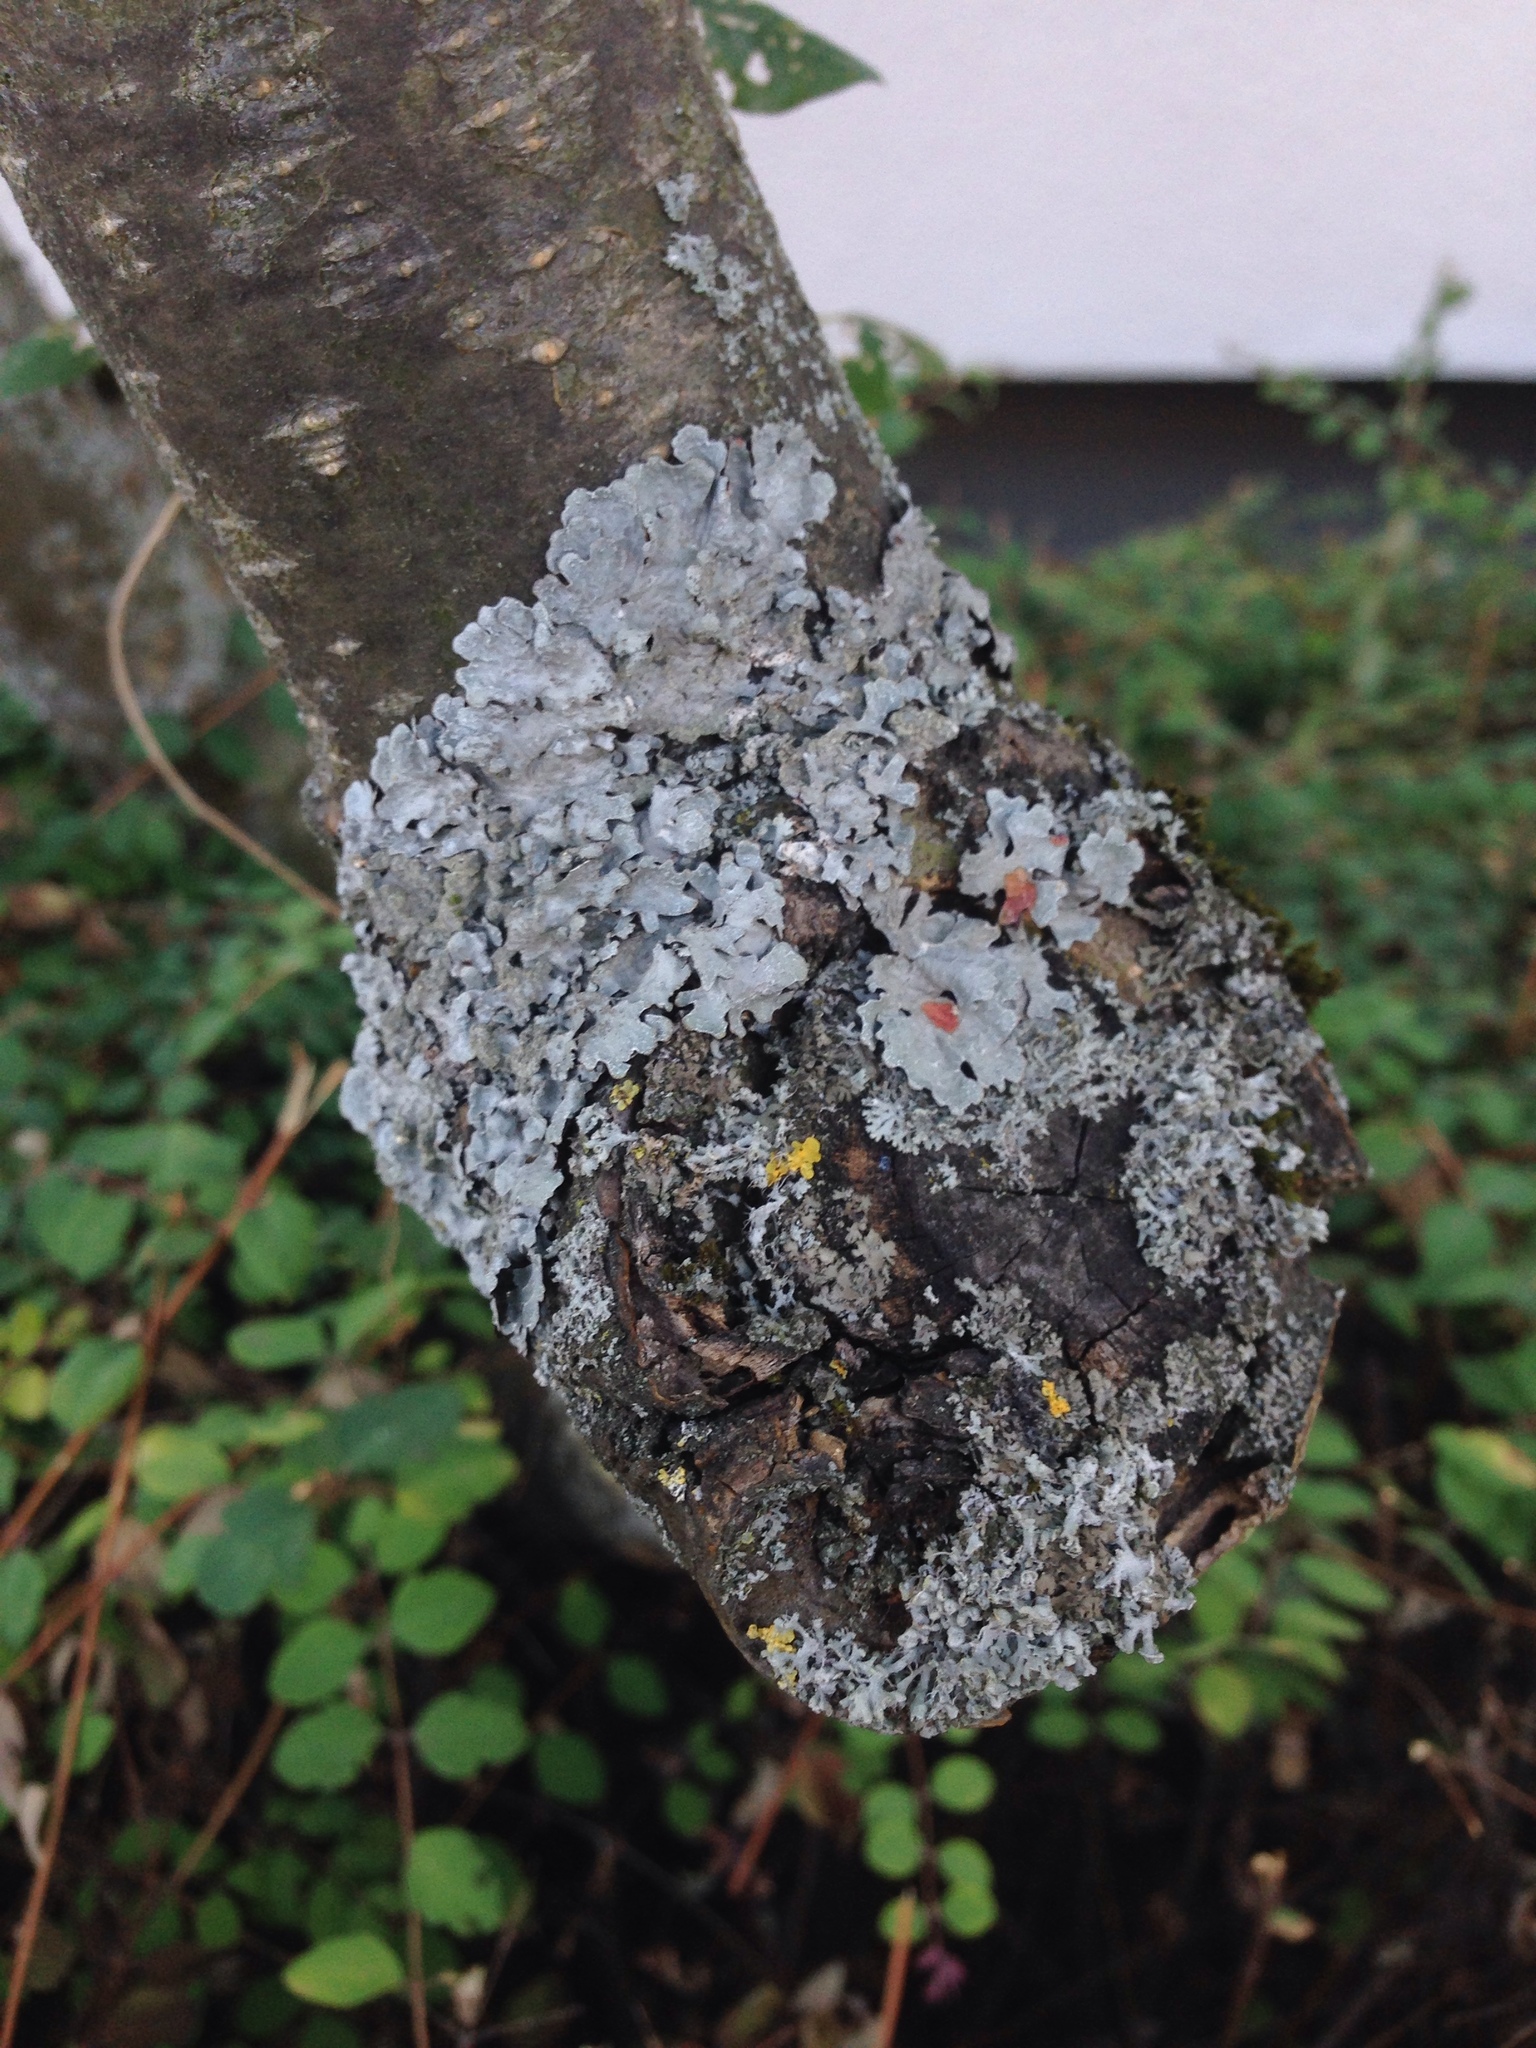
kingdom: Fungi
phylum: Ascomycota
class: Lecanoromycetes
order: Lecanorales
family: Parmeliaceae
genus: Parmelia
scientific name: Parmelia sulcata
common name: Netted shield lichen
